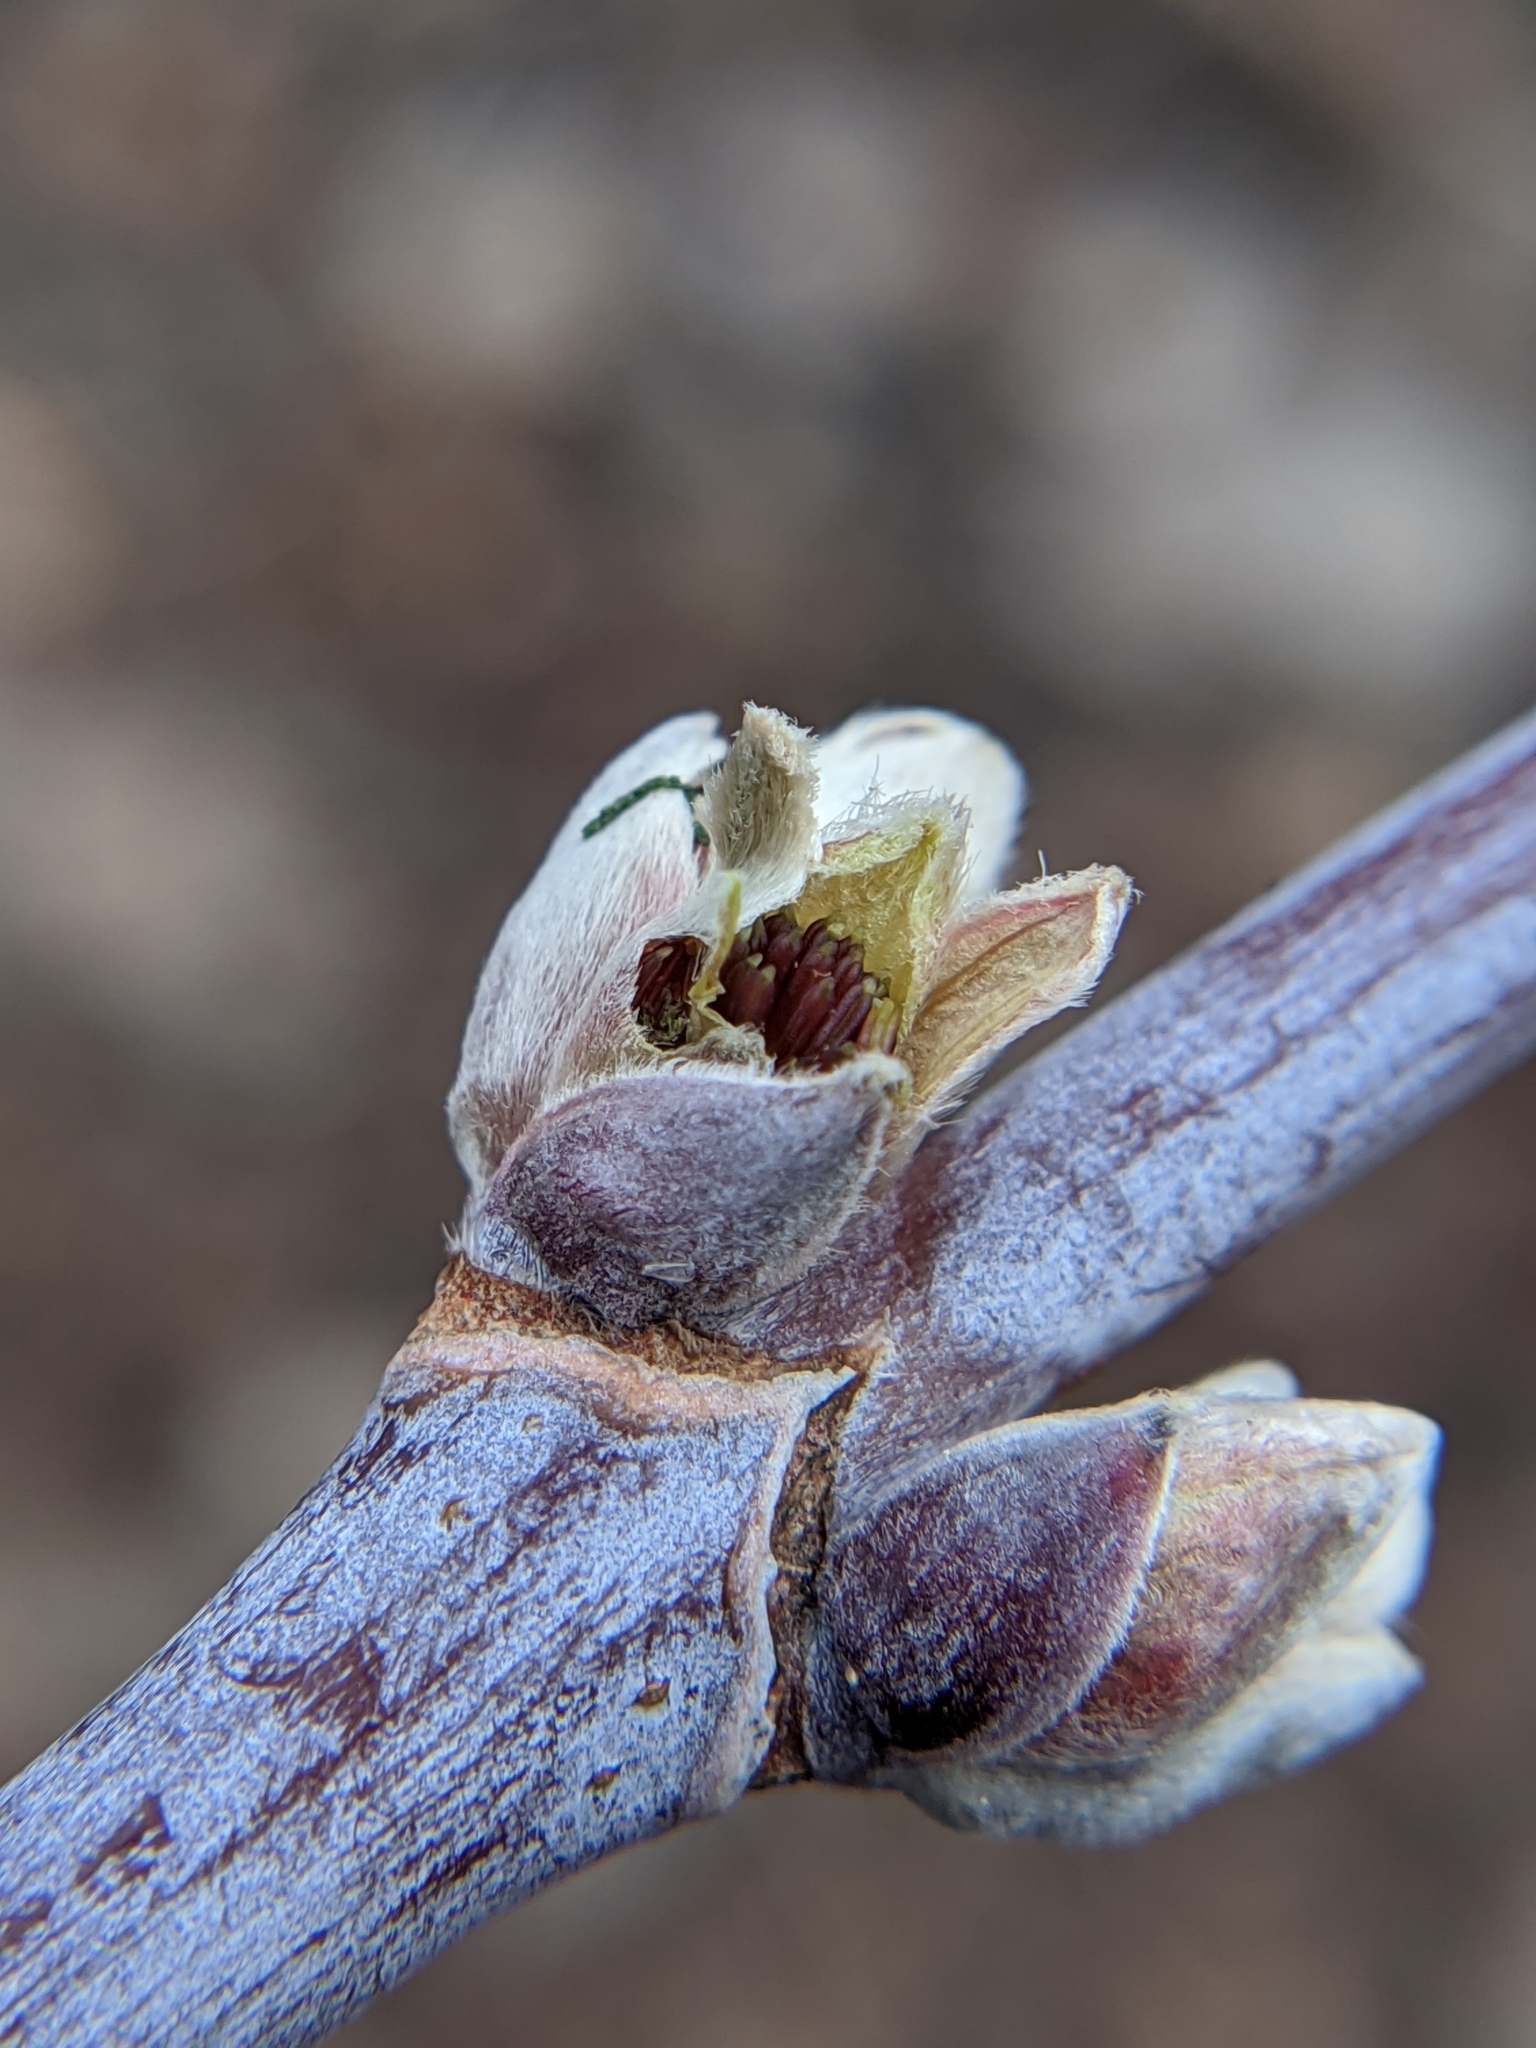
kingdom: Plantae
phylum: Tracheophyta
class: Magnoliopsida
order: Sapindales
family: Sapindaceae
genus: Acer
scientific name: Acer negundo
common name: Ashleaf maple
